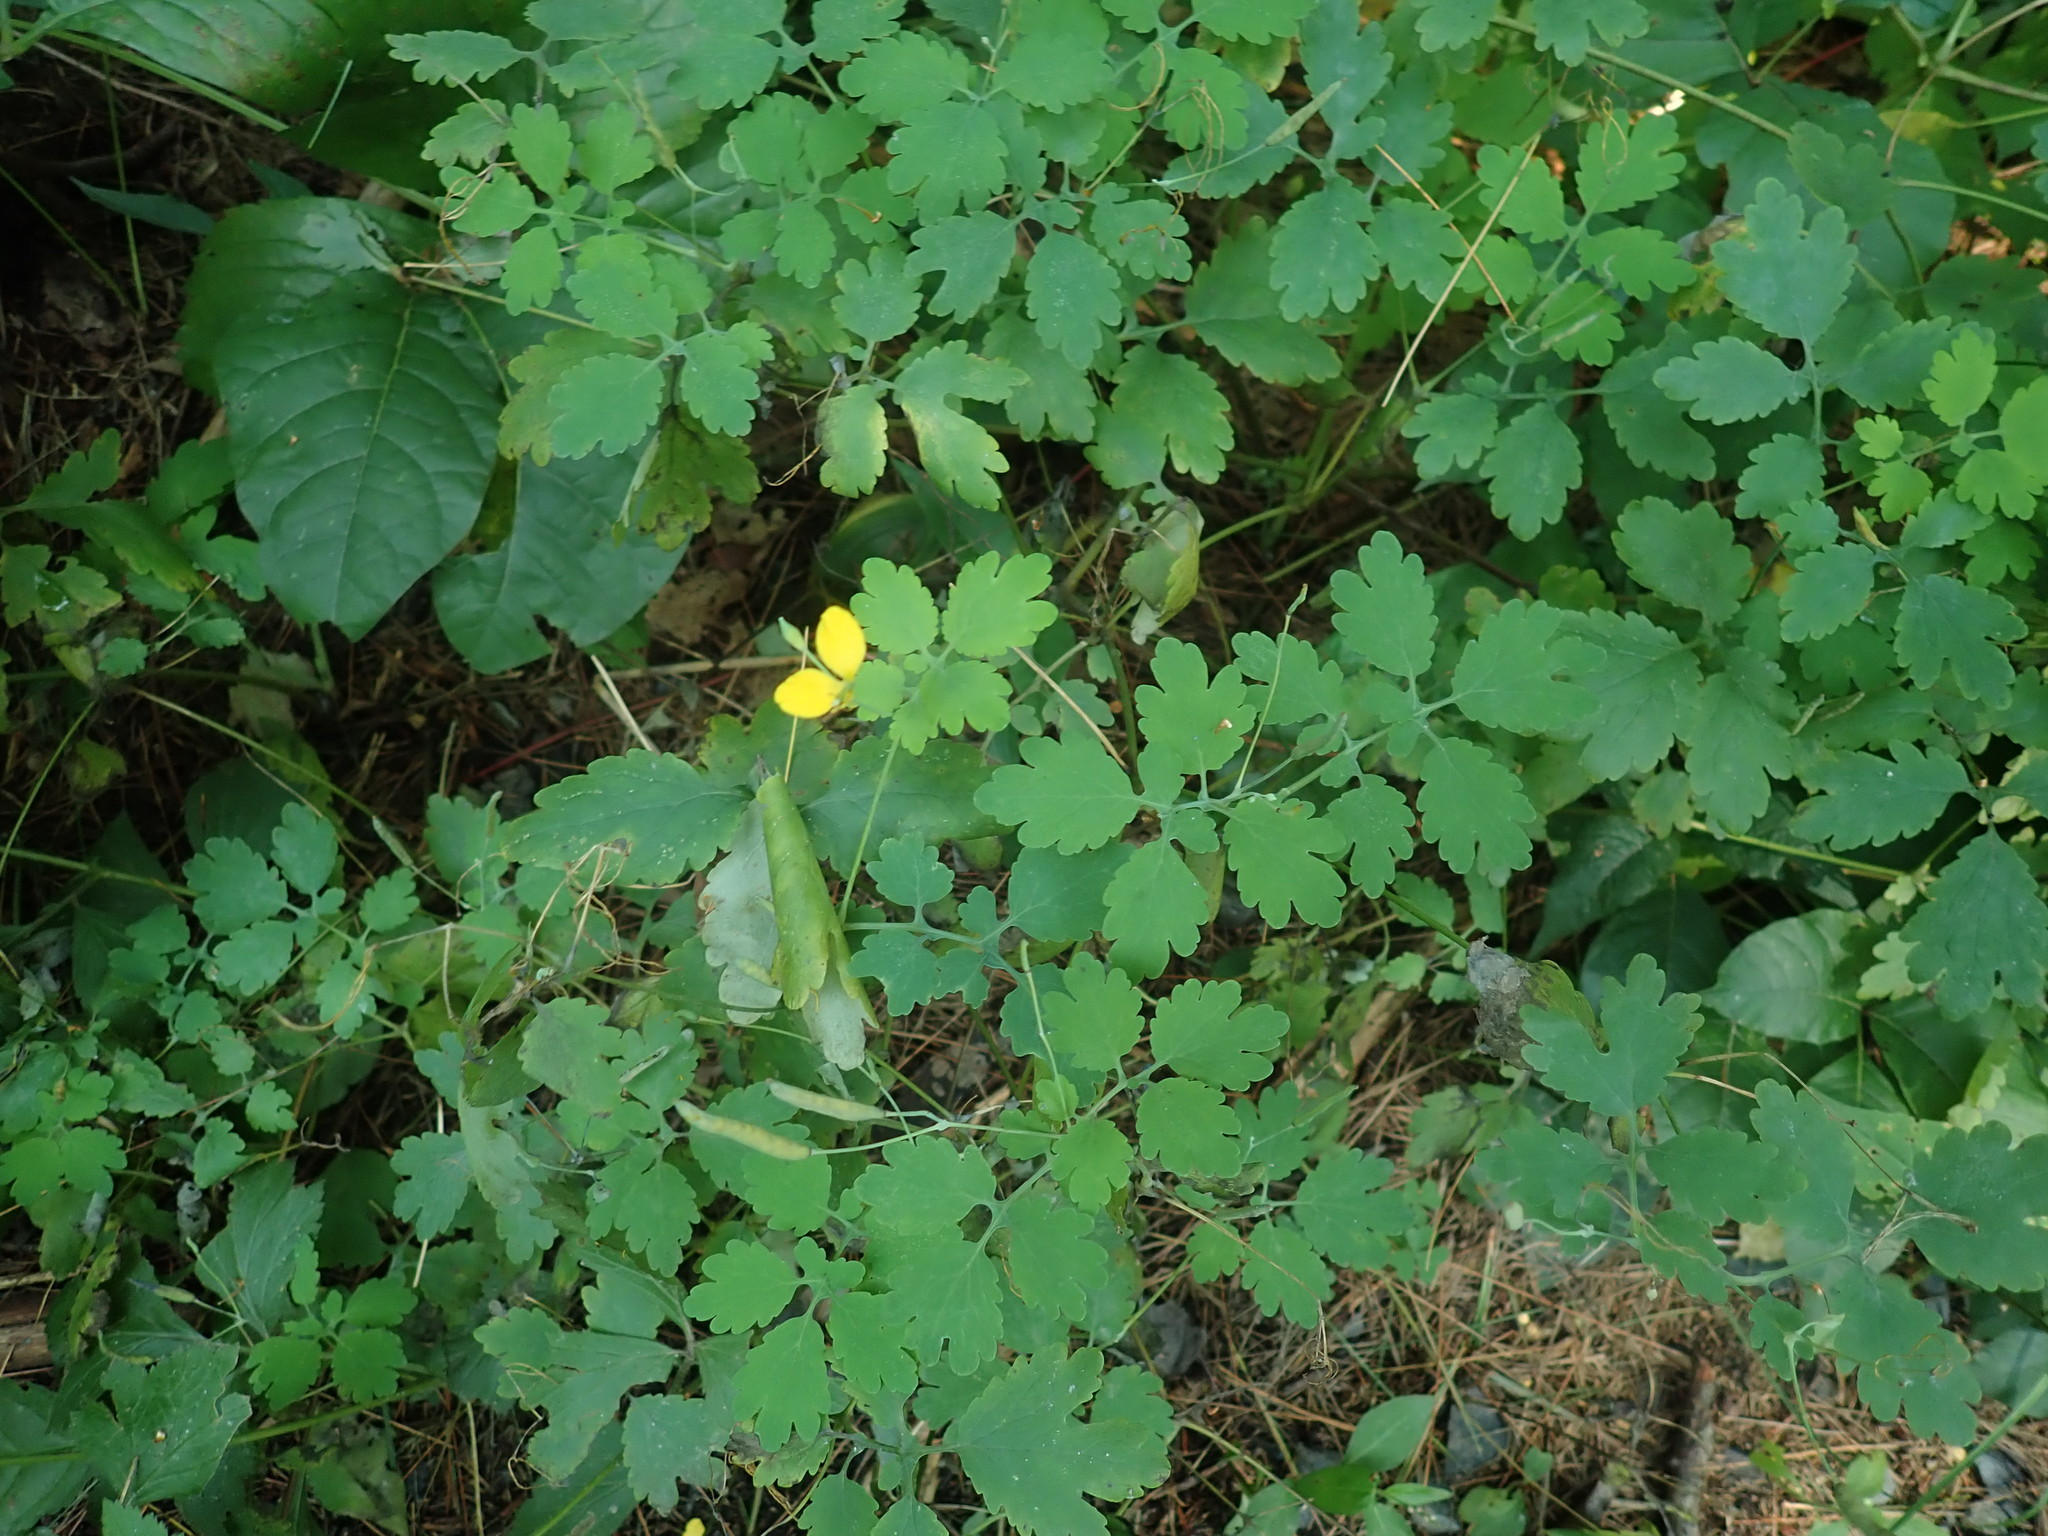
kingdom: Plantae
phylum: Tracheophyta
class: Magnoliopsida
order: Ranunculales
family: Papaveraceae
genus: Chelidonium
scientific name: Chelidonium majus
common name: Greater celandine
